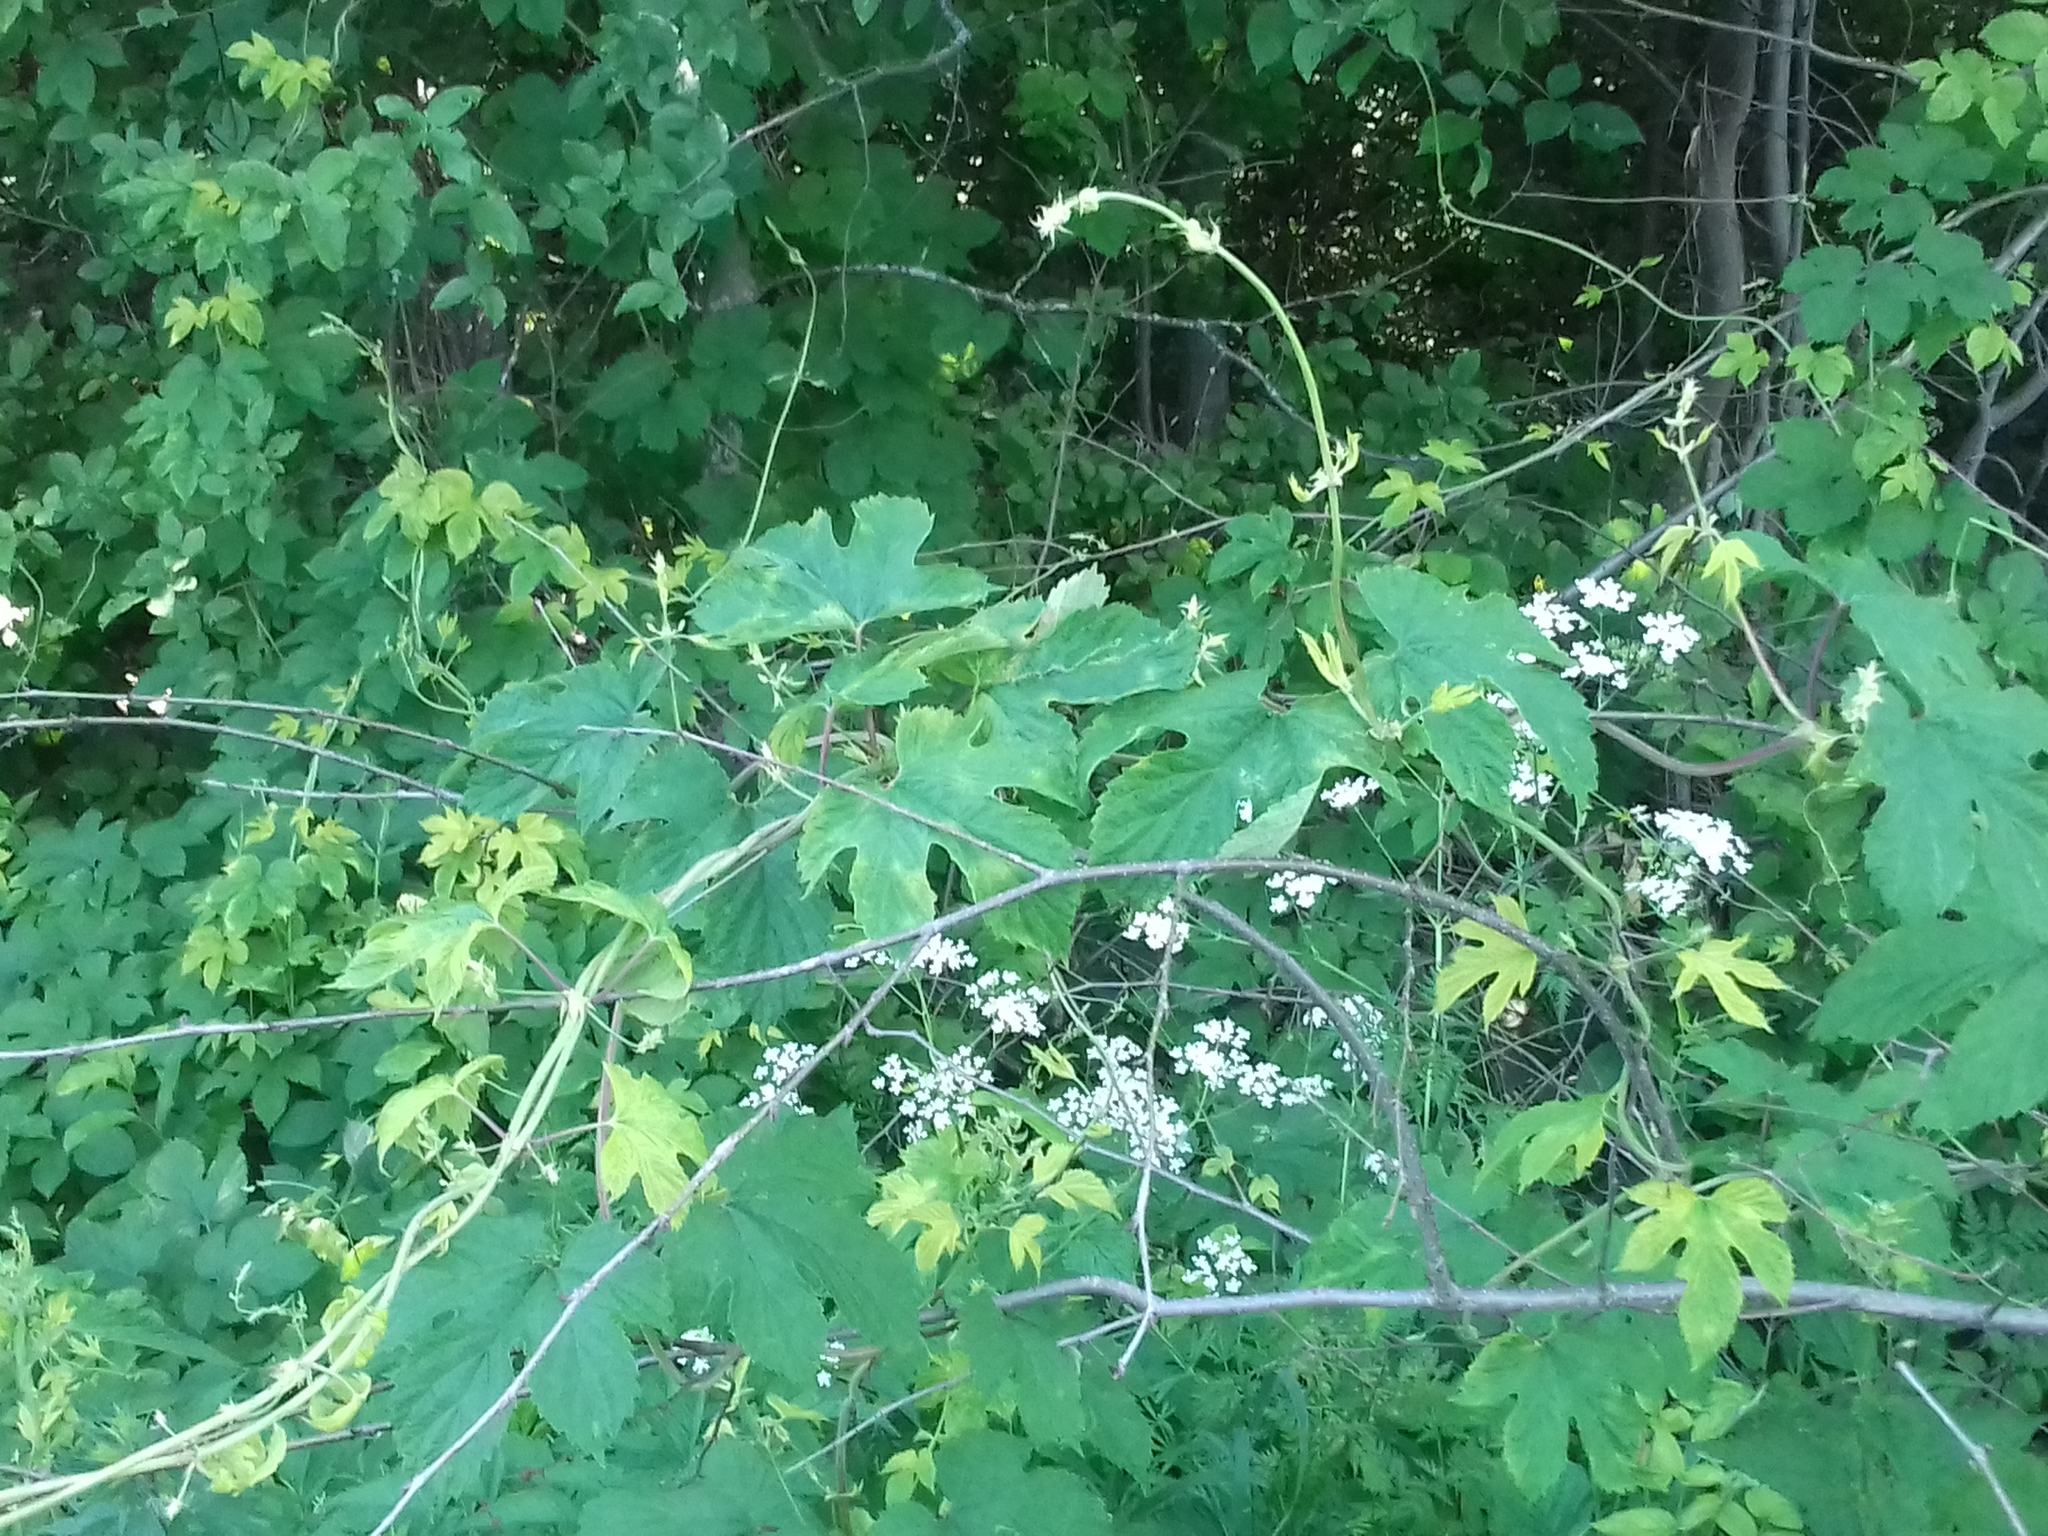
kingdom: Plantae
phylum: Tracheophyta
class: Magnoliopsida
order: Rosales
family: Cannabaceae
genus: Humulus
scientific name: Humulus lupulus
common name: Hop
